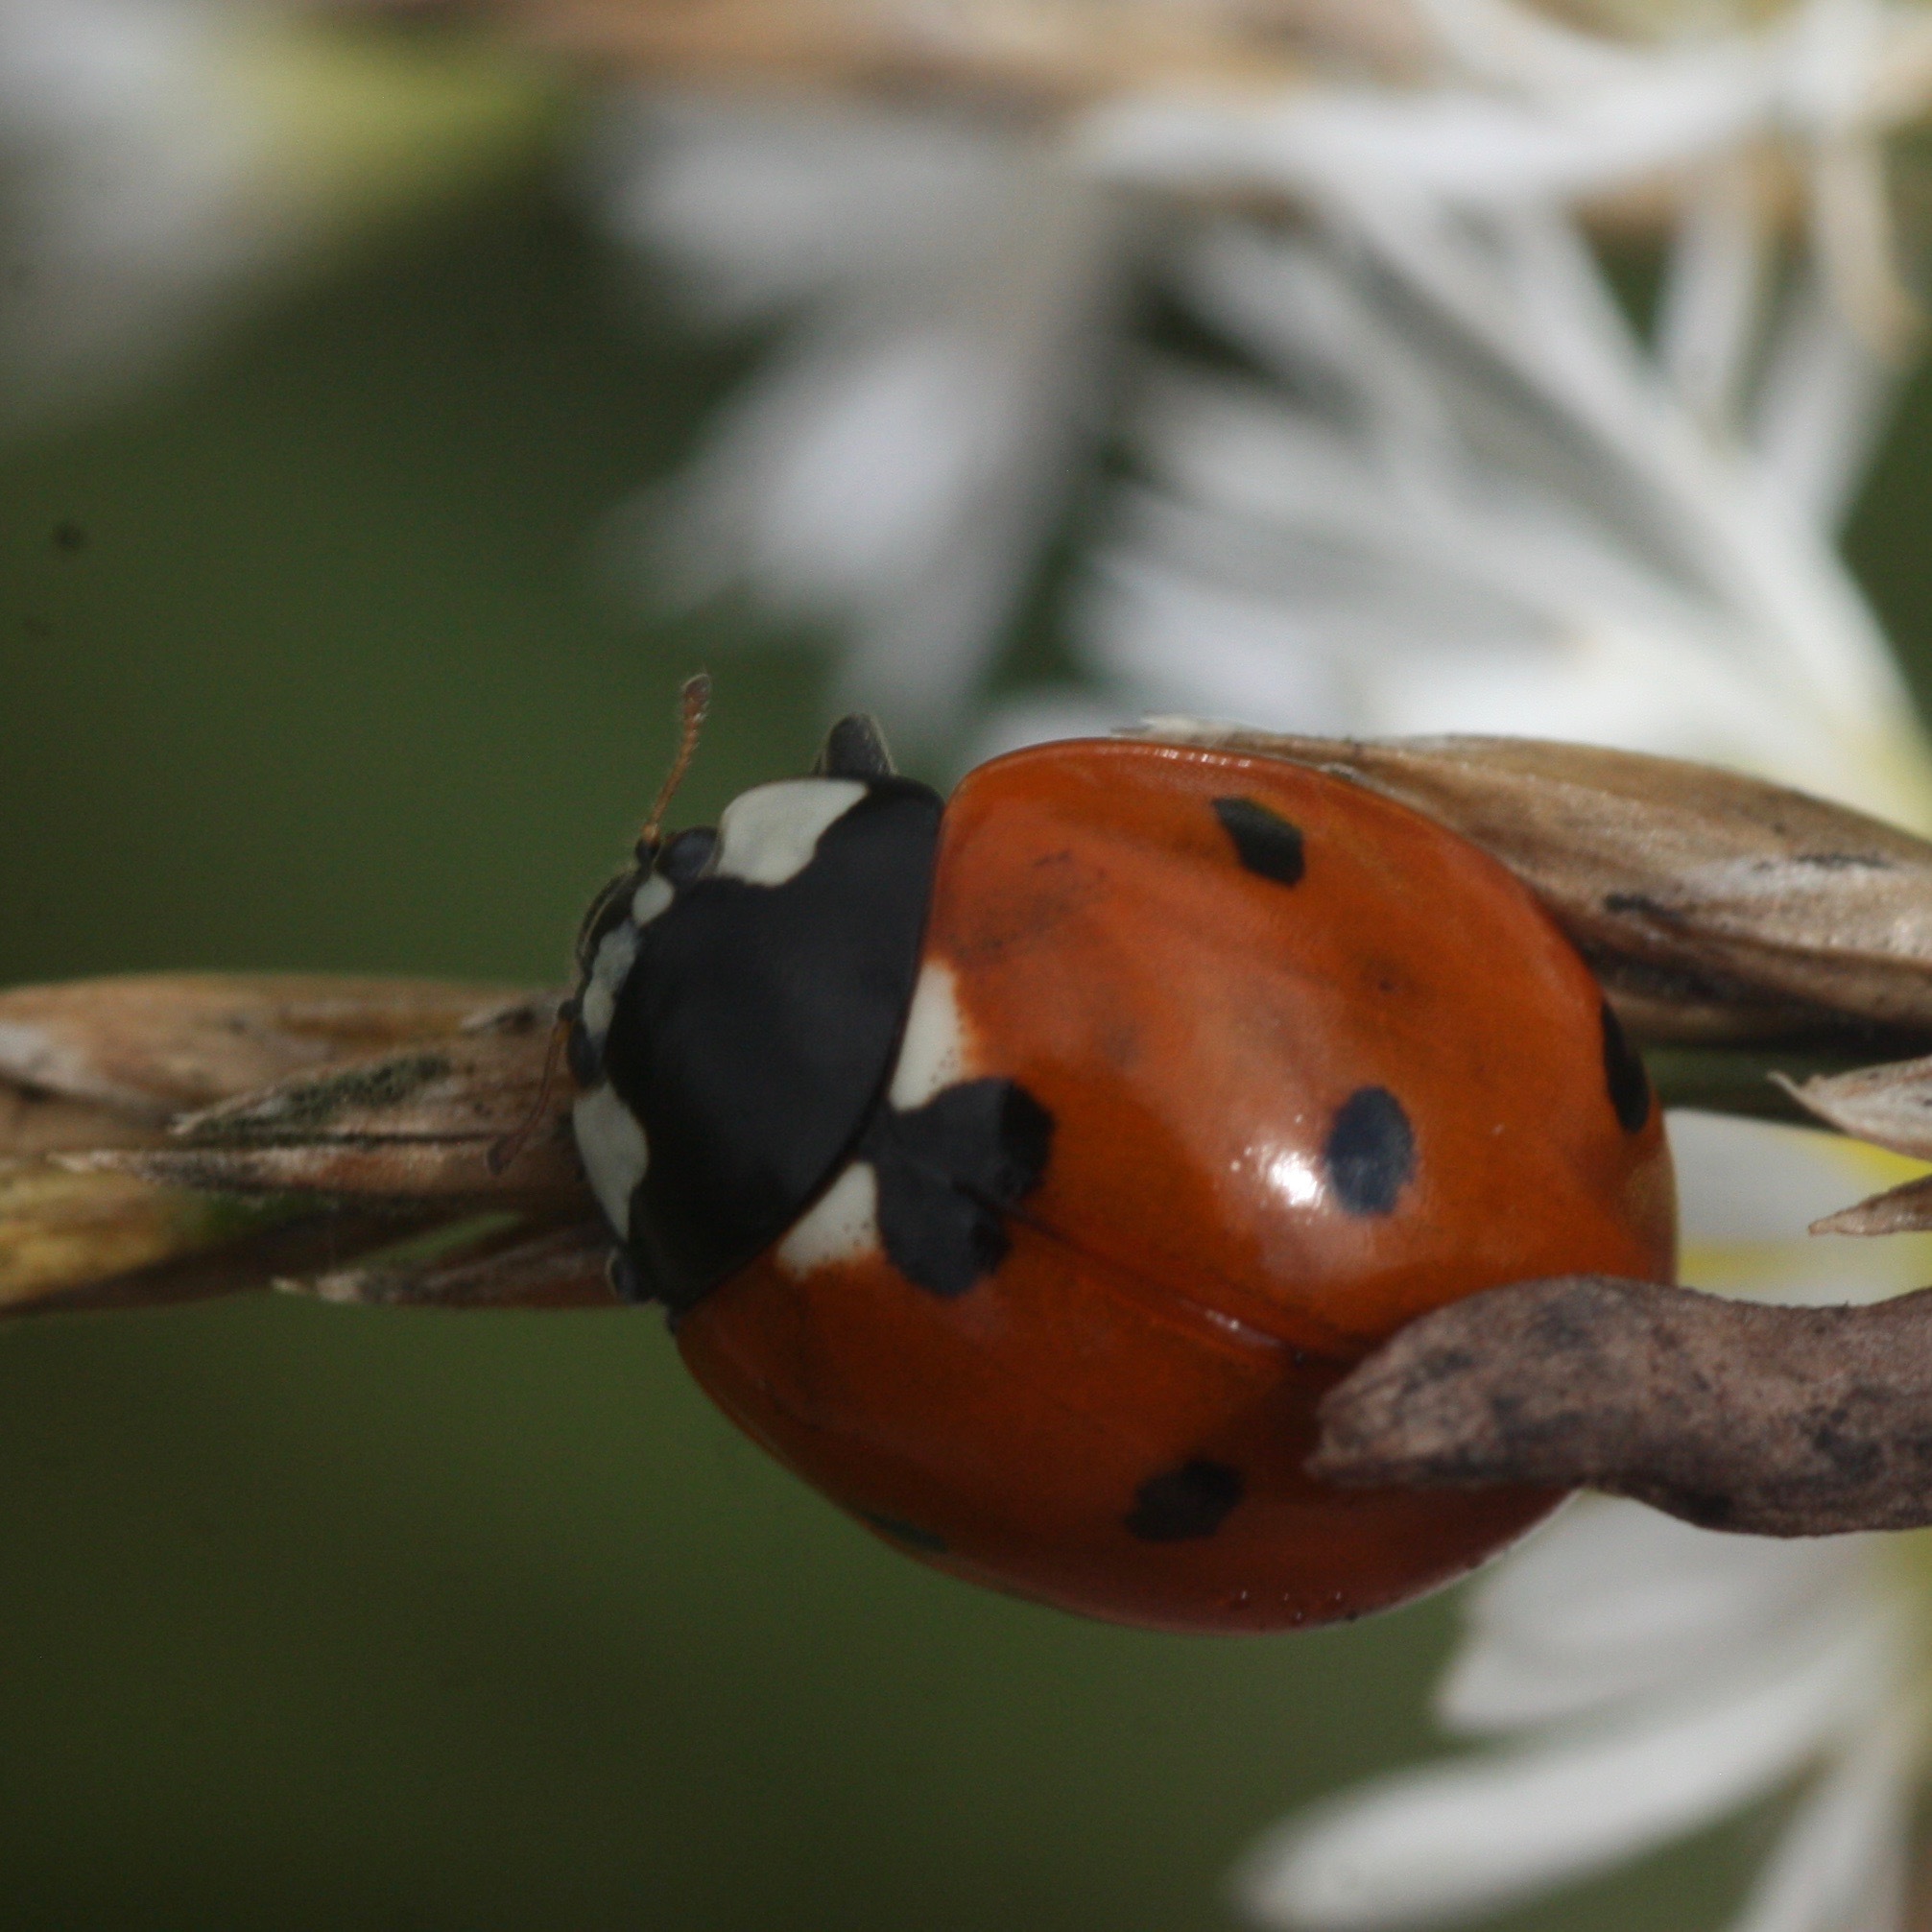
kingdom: Animalia
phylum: Arthropoda
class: Insecta
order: Coleoptera
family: Coccinellidae
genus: Coccinella
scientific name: Coccinella septempunctata
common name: Sevenspotted lady beetle
